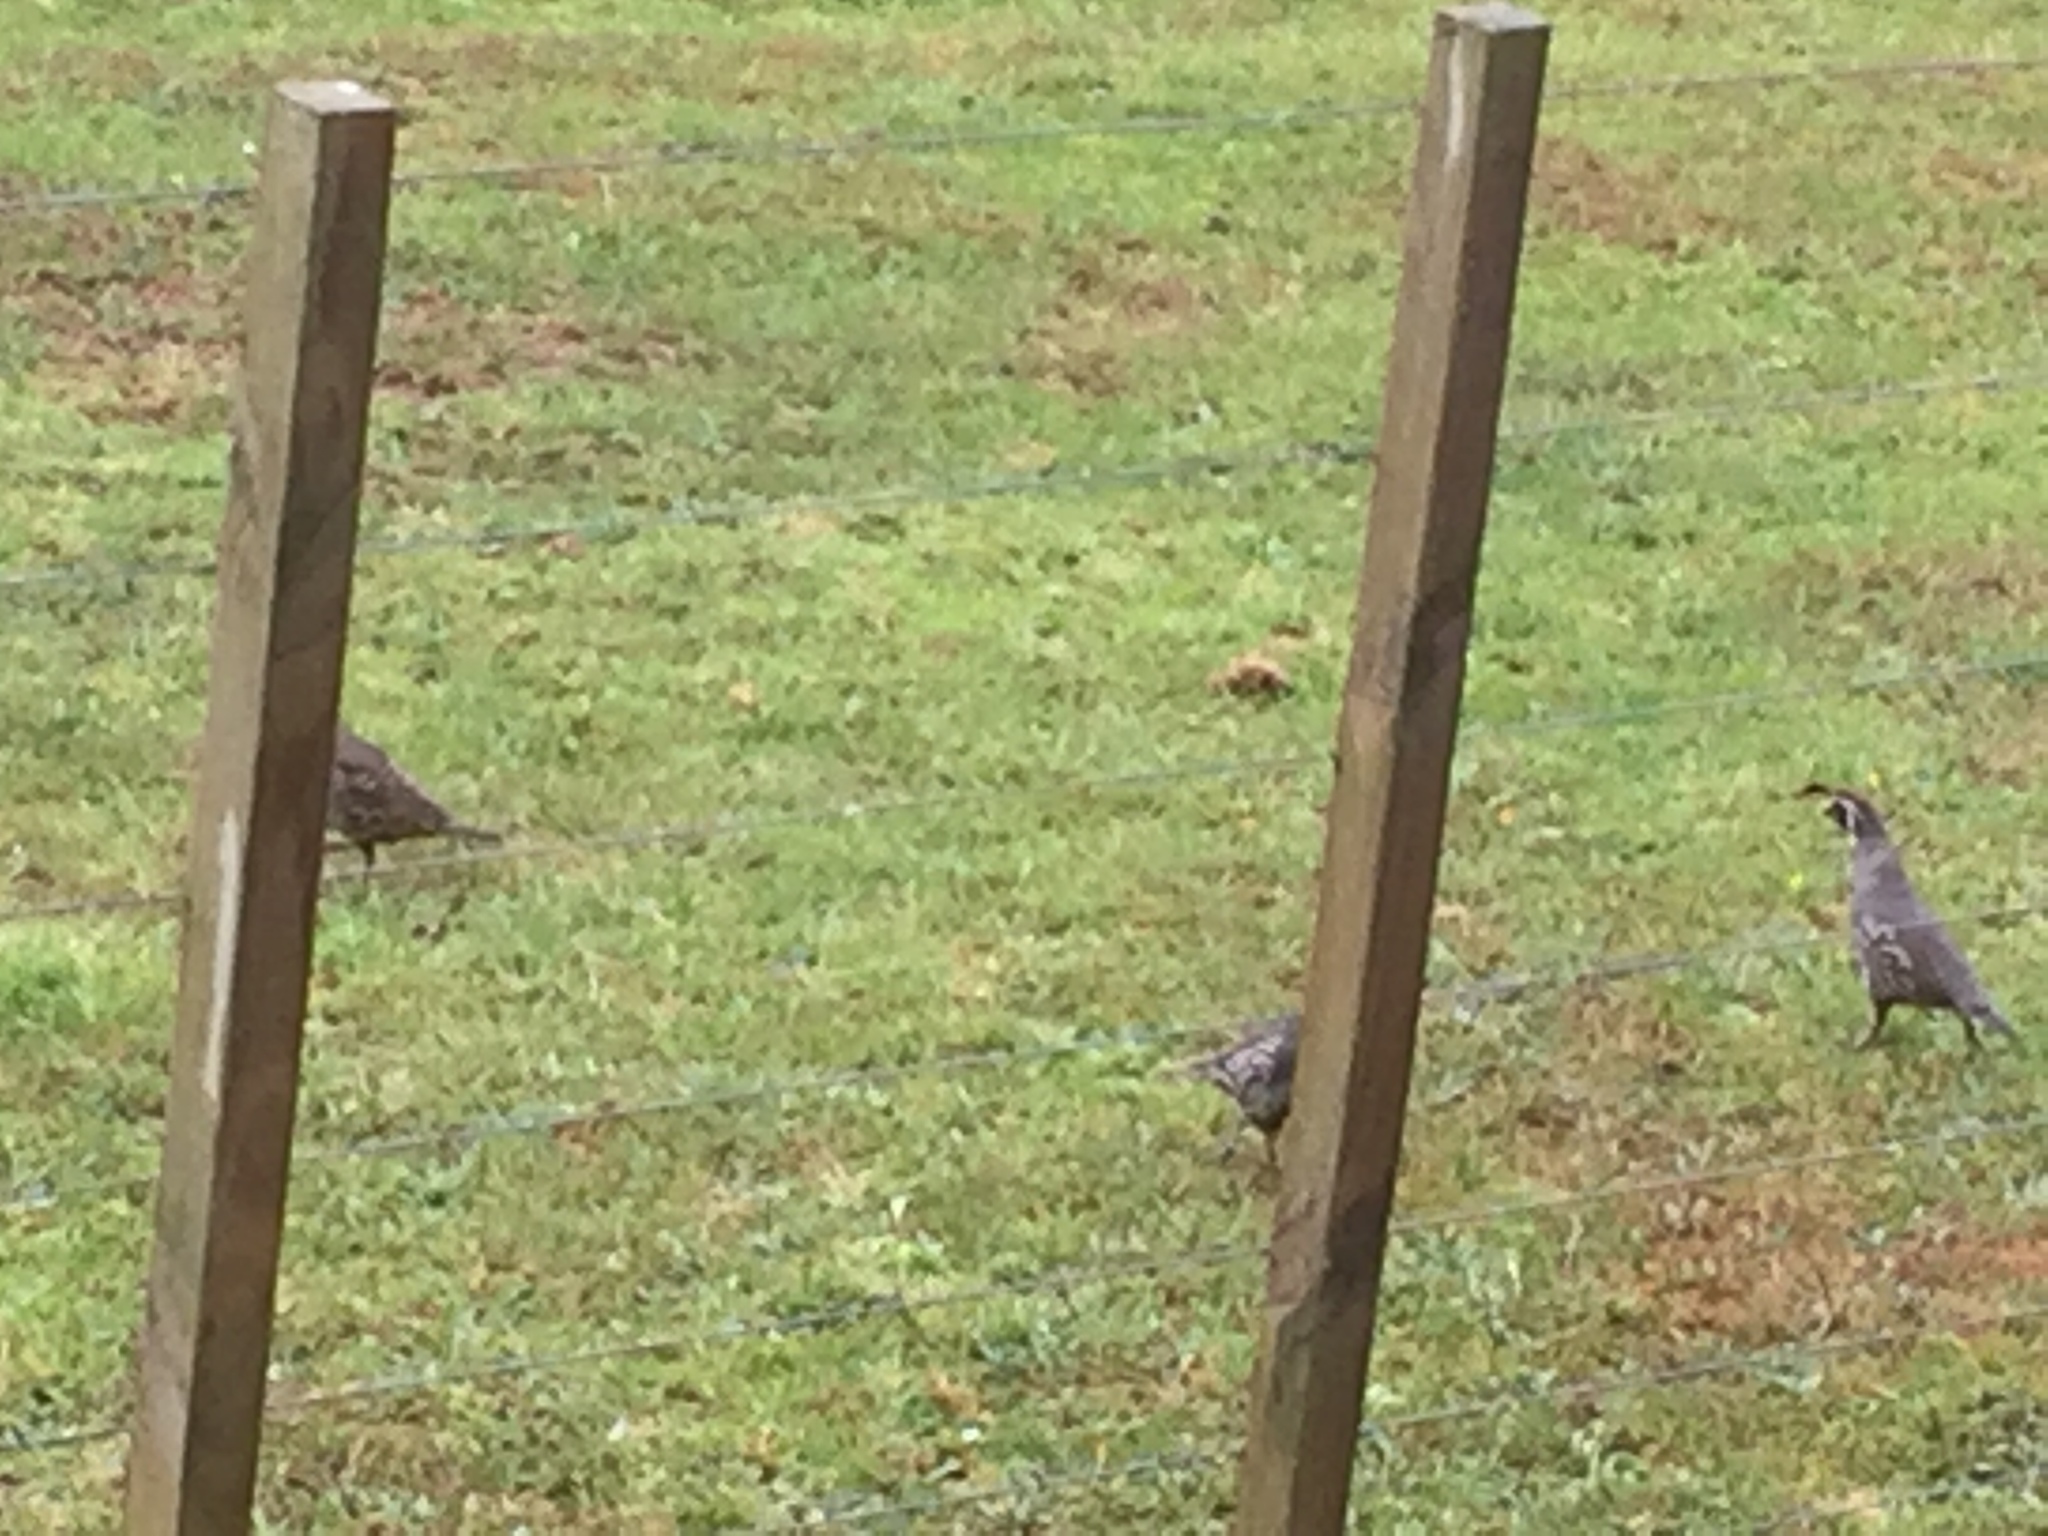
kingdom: Animalia
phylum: Chordata
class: Aves
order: Galliformes
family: Odontophoridae
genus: Callipepla
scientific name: Callipepla californica
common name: California quail
